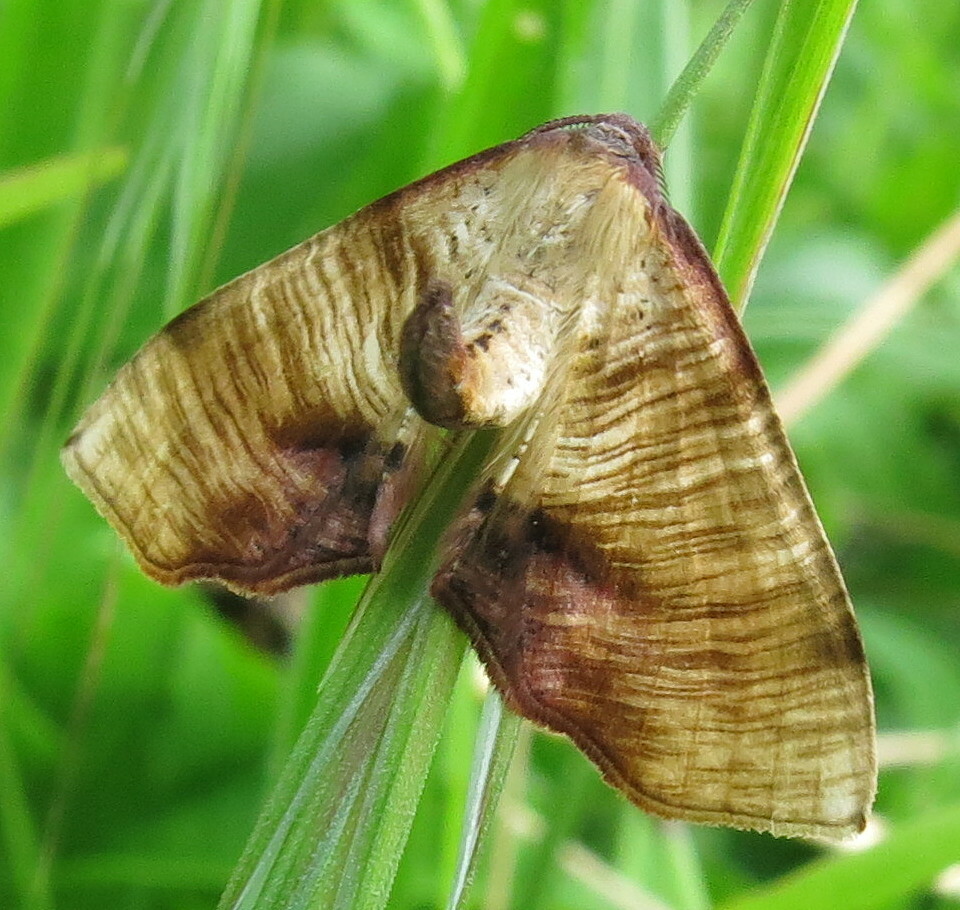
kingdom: Animalia
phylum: Arthropoda
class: Insecta
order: Lepidoptera
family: Geometridae
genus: Plagodis
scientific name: Plagodis dolabraria
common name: Scorched wing
